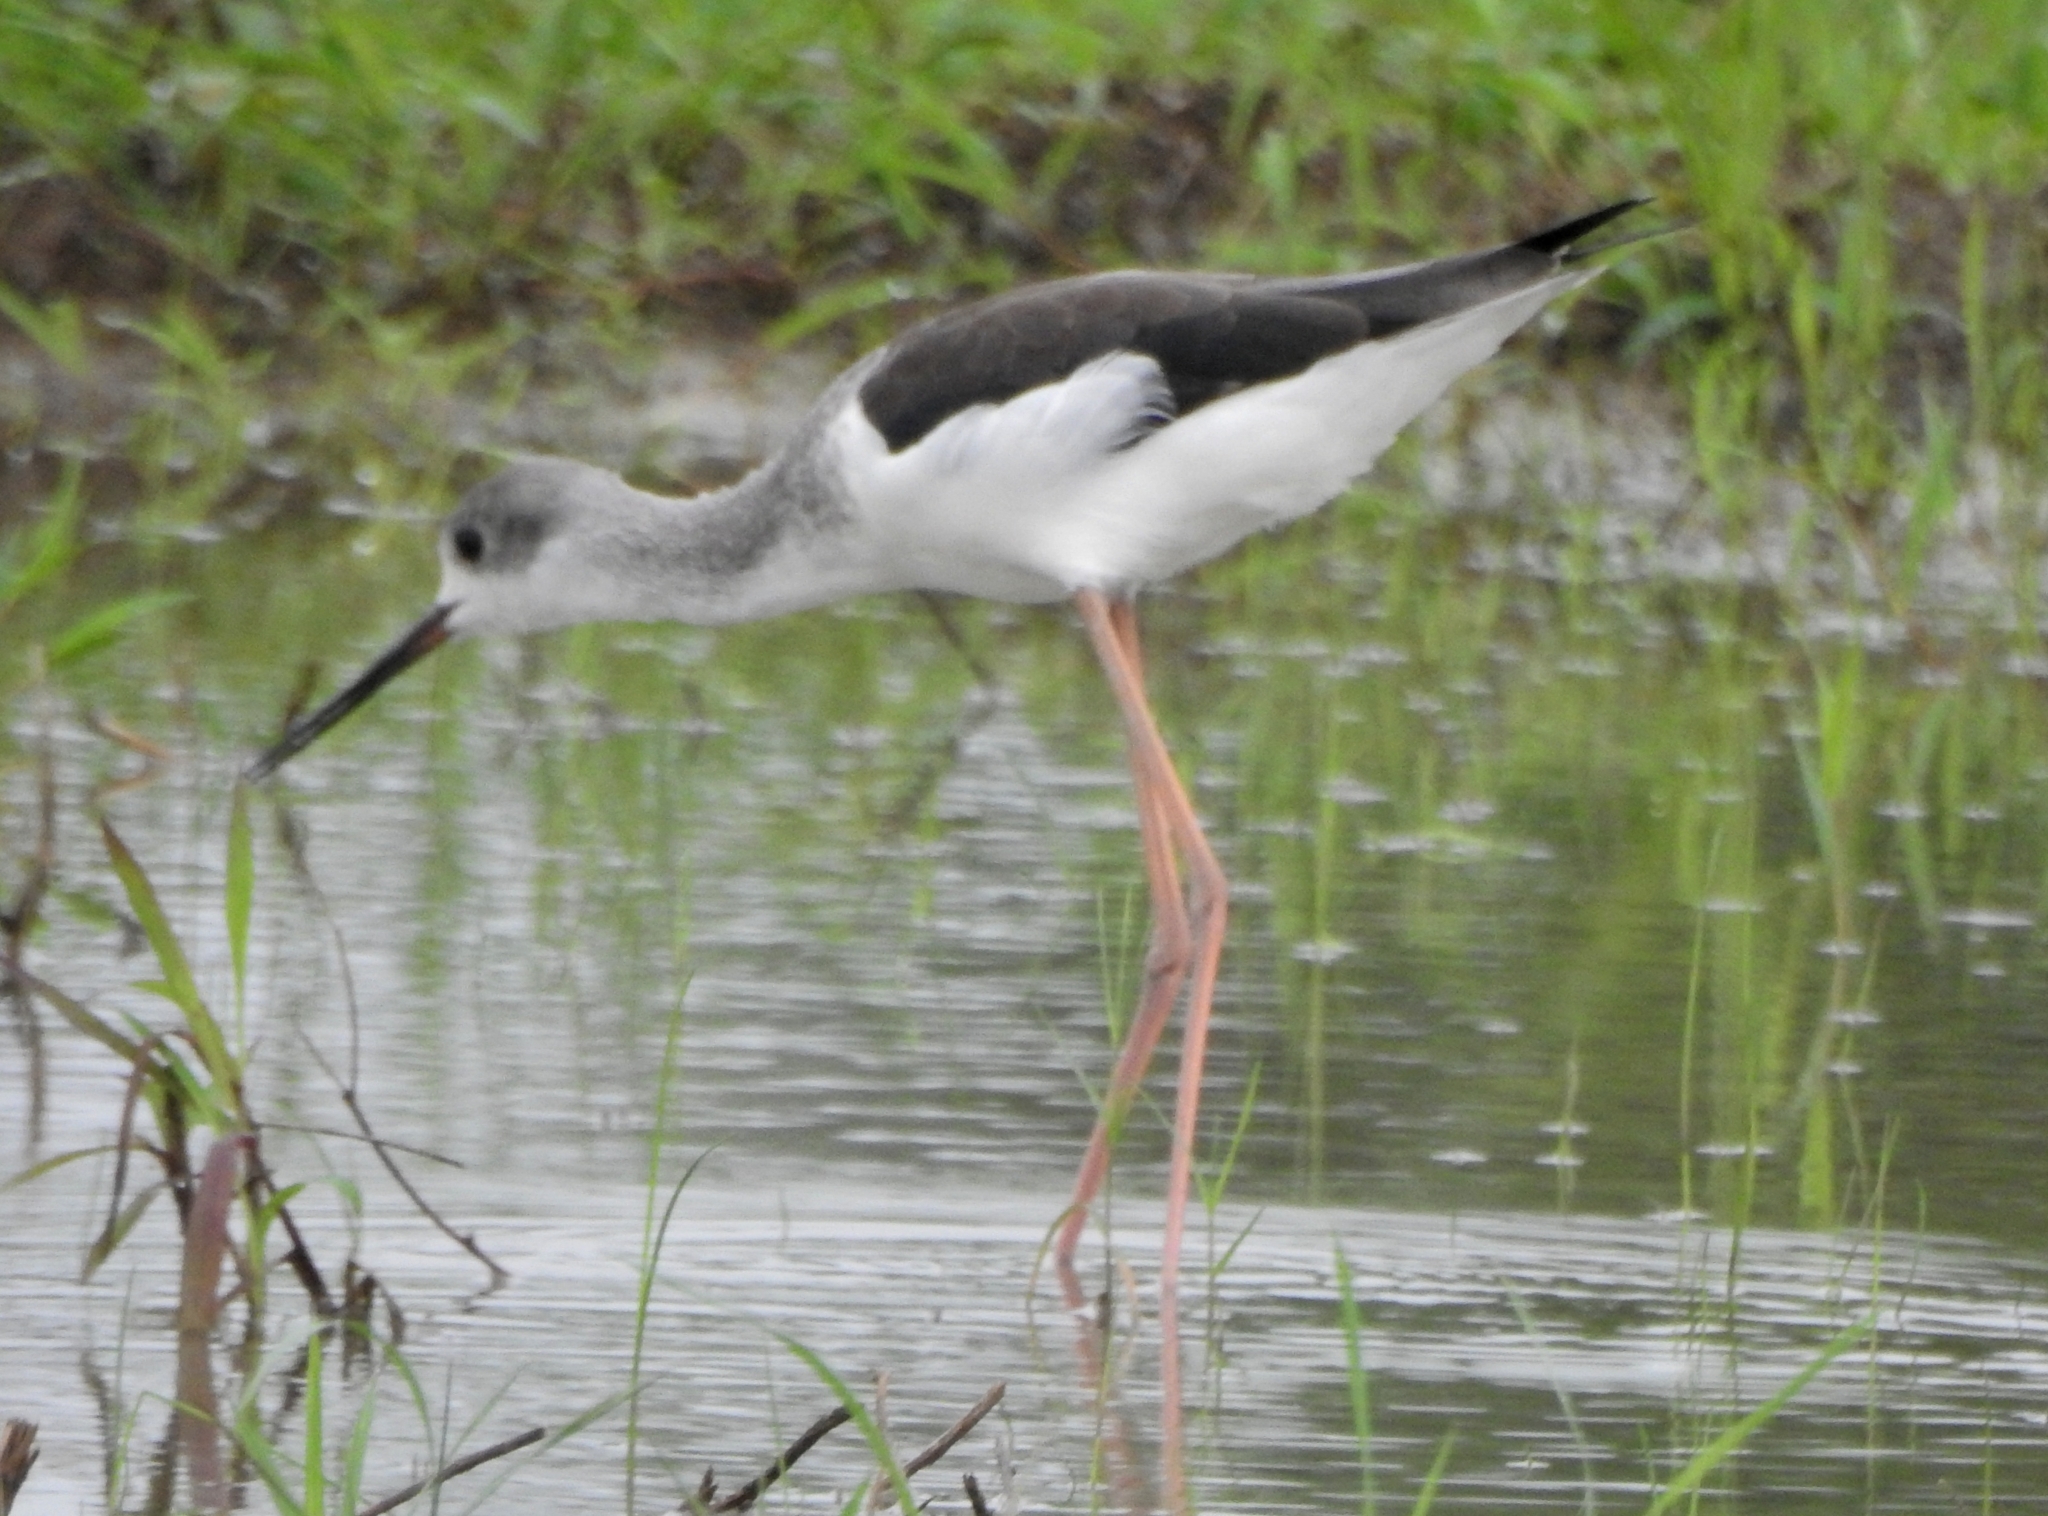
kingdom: Animalia
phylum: Chordata
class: Aves
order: Charadriiformes
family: Recurvirostridae
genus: Himantopus
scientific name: Himantopus himantopus
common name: Black-winged stilt
